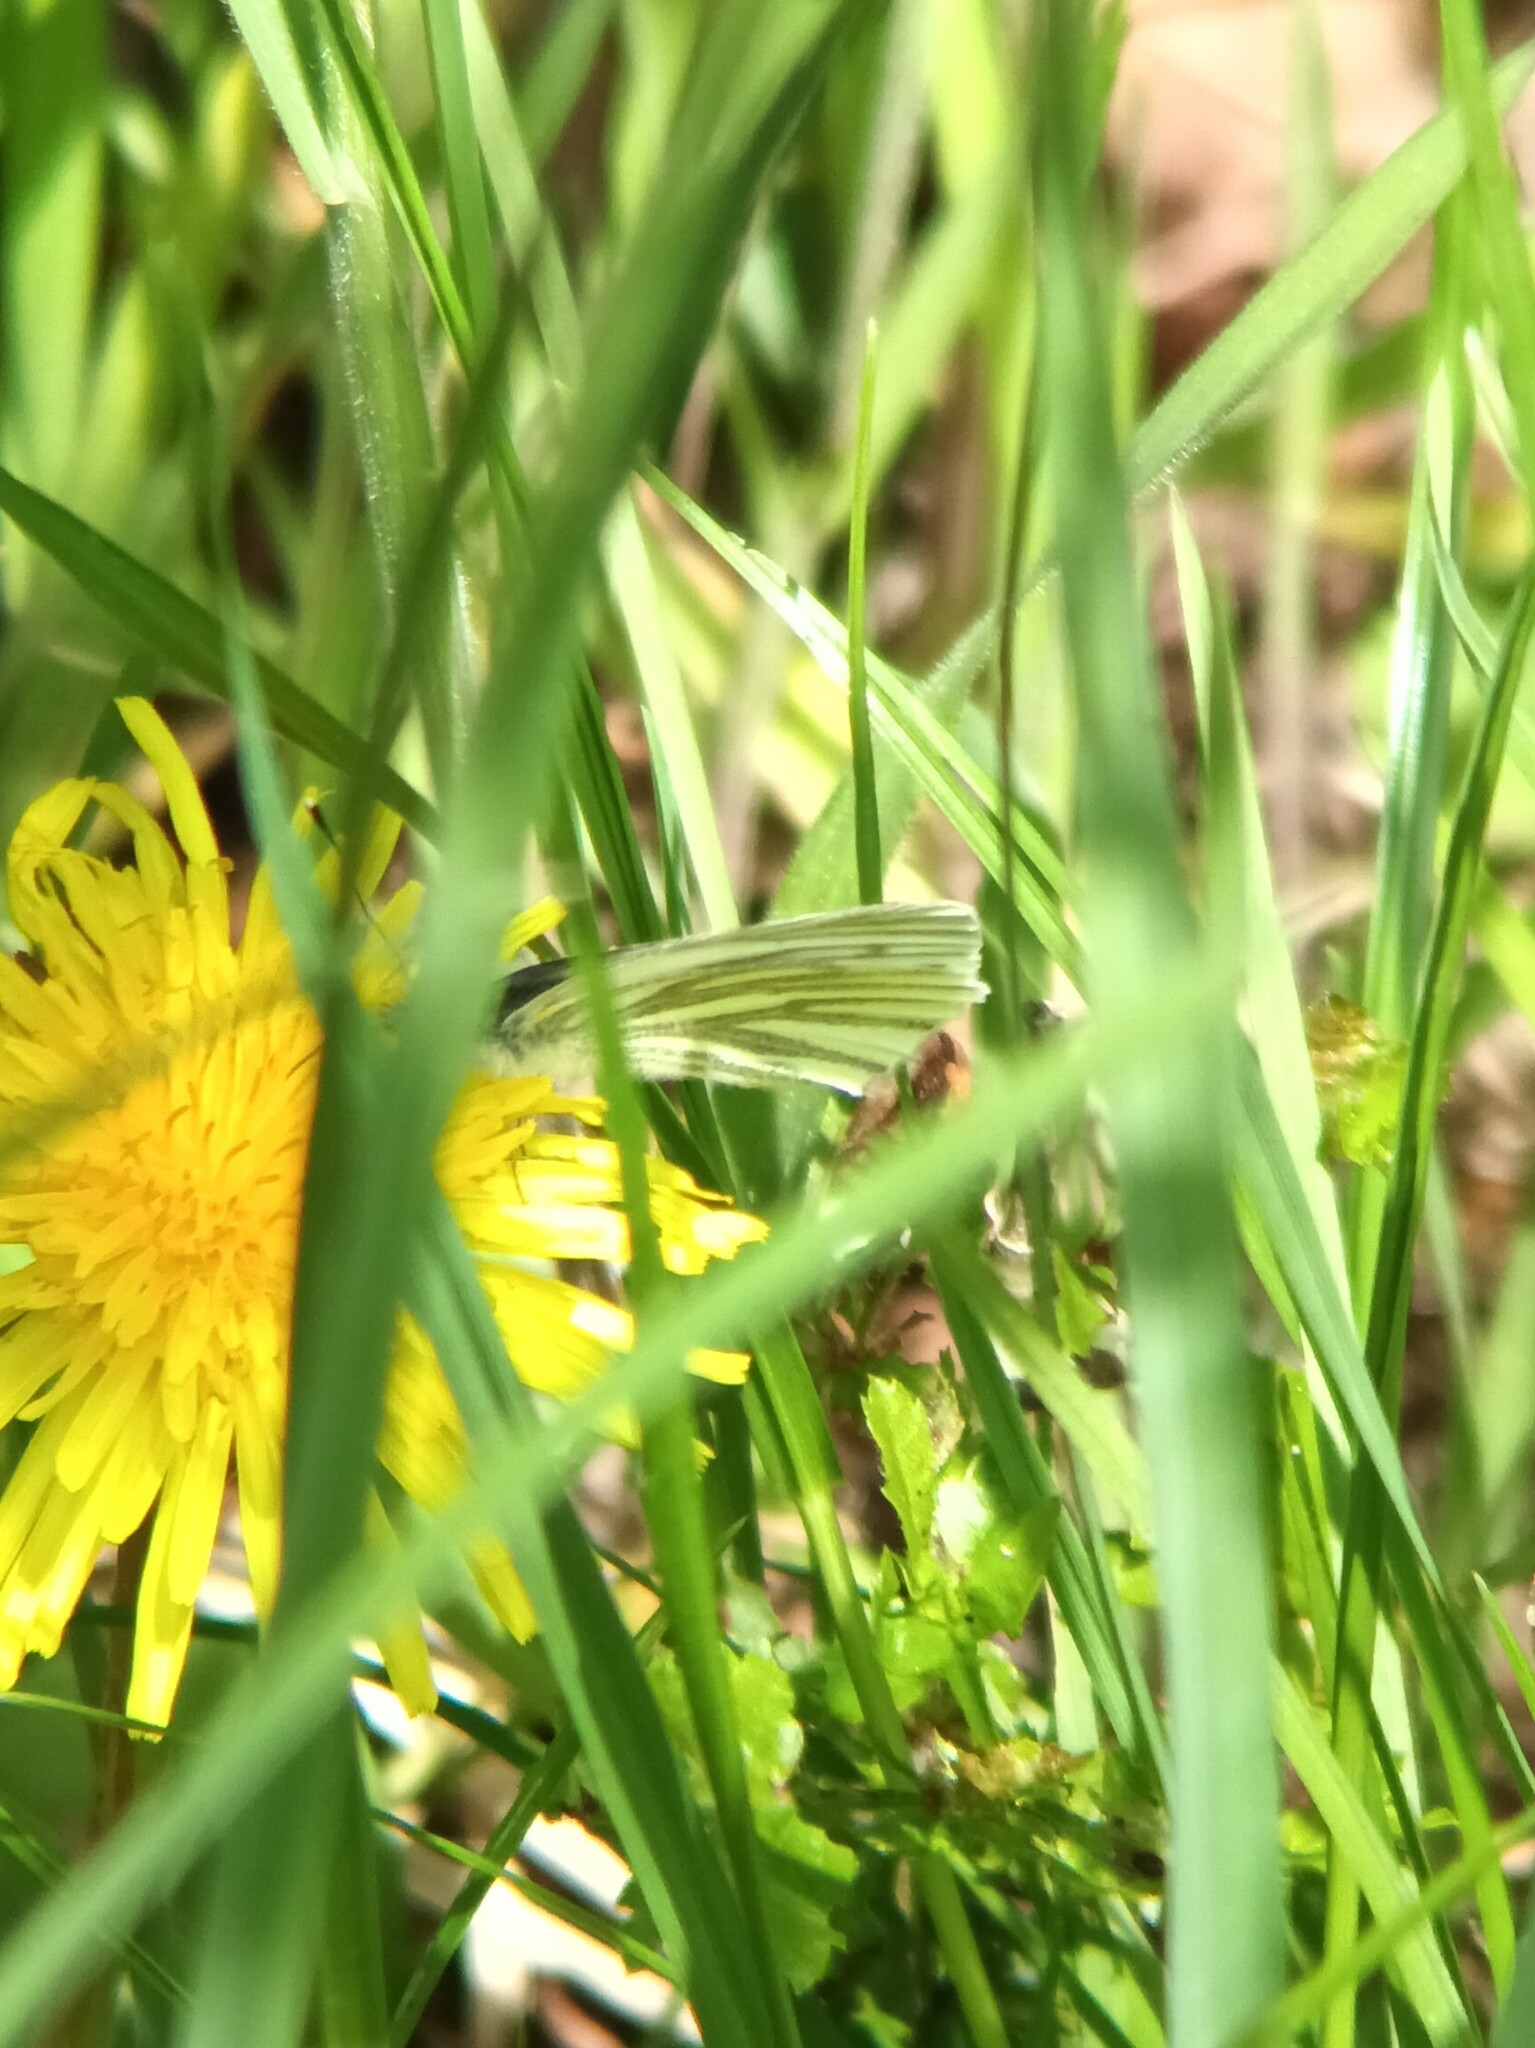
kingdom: Animalia
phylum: Arthropoda
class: Insecta
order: Lepidoptera
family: Pieridae
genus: Pieris
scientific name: Pieris napi
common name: Green-veined white
